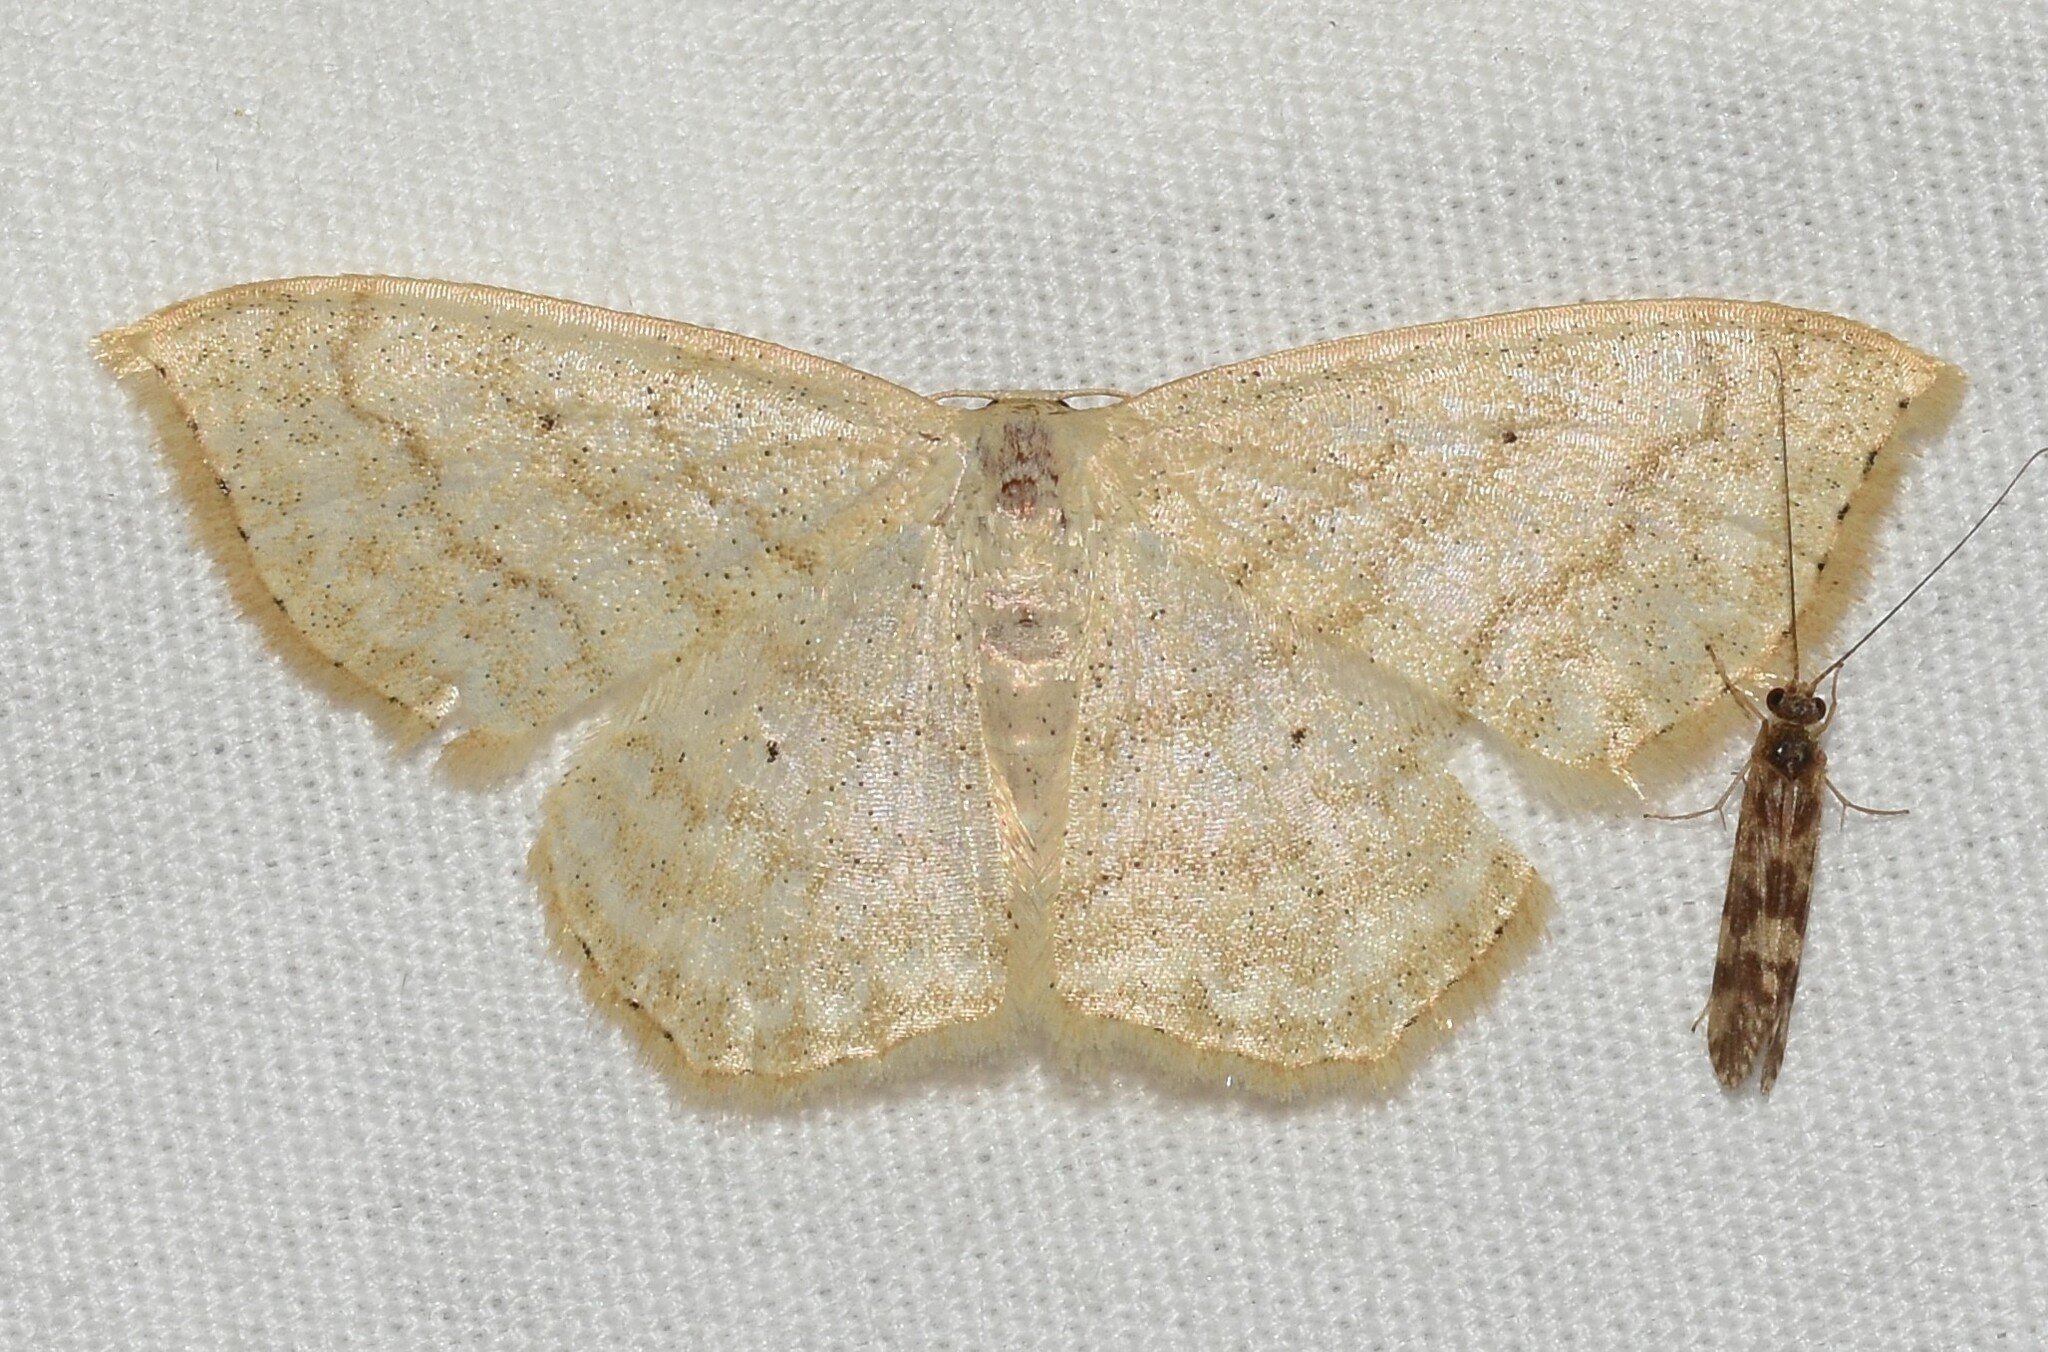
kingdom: Animalia
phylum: Arthropoda
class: Insecta
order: Lepidoptera
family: Geometridae
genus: Scopula
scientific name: Scopula limboundata
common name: Large lace border
